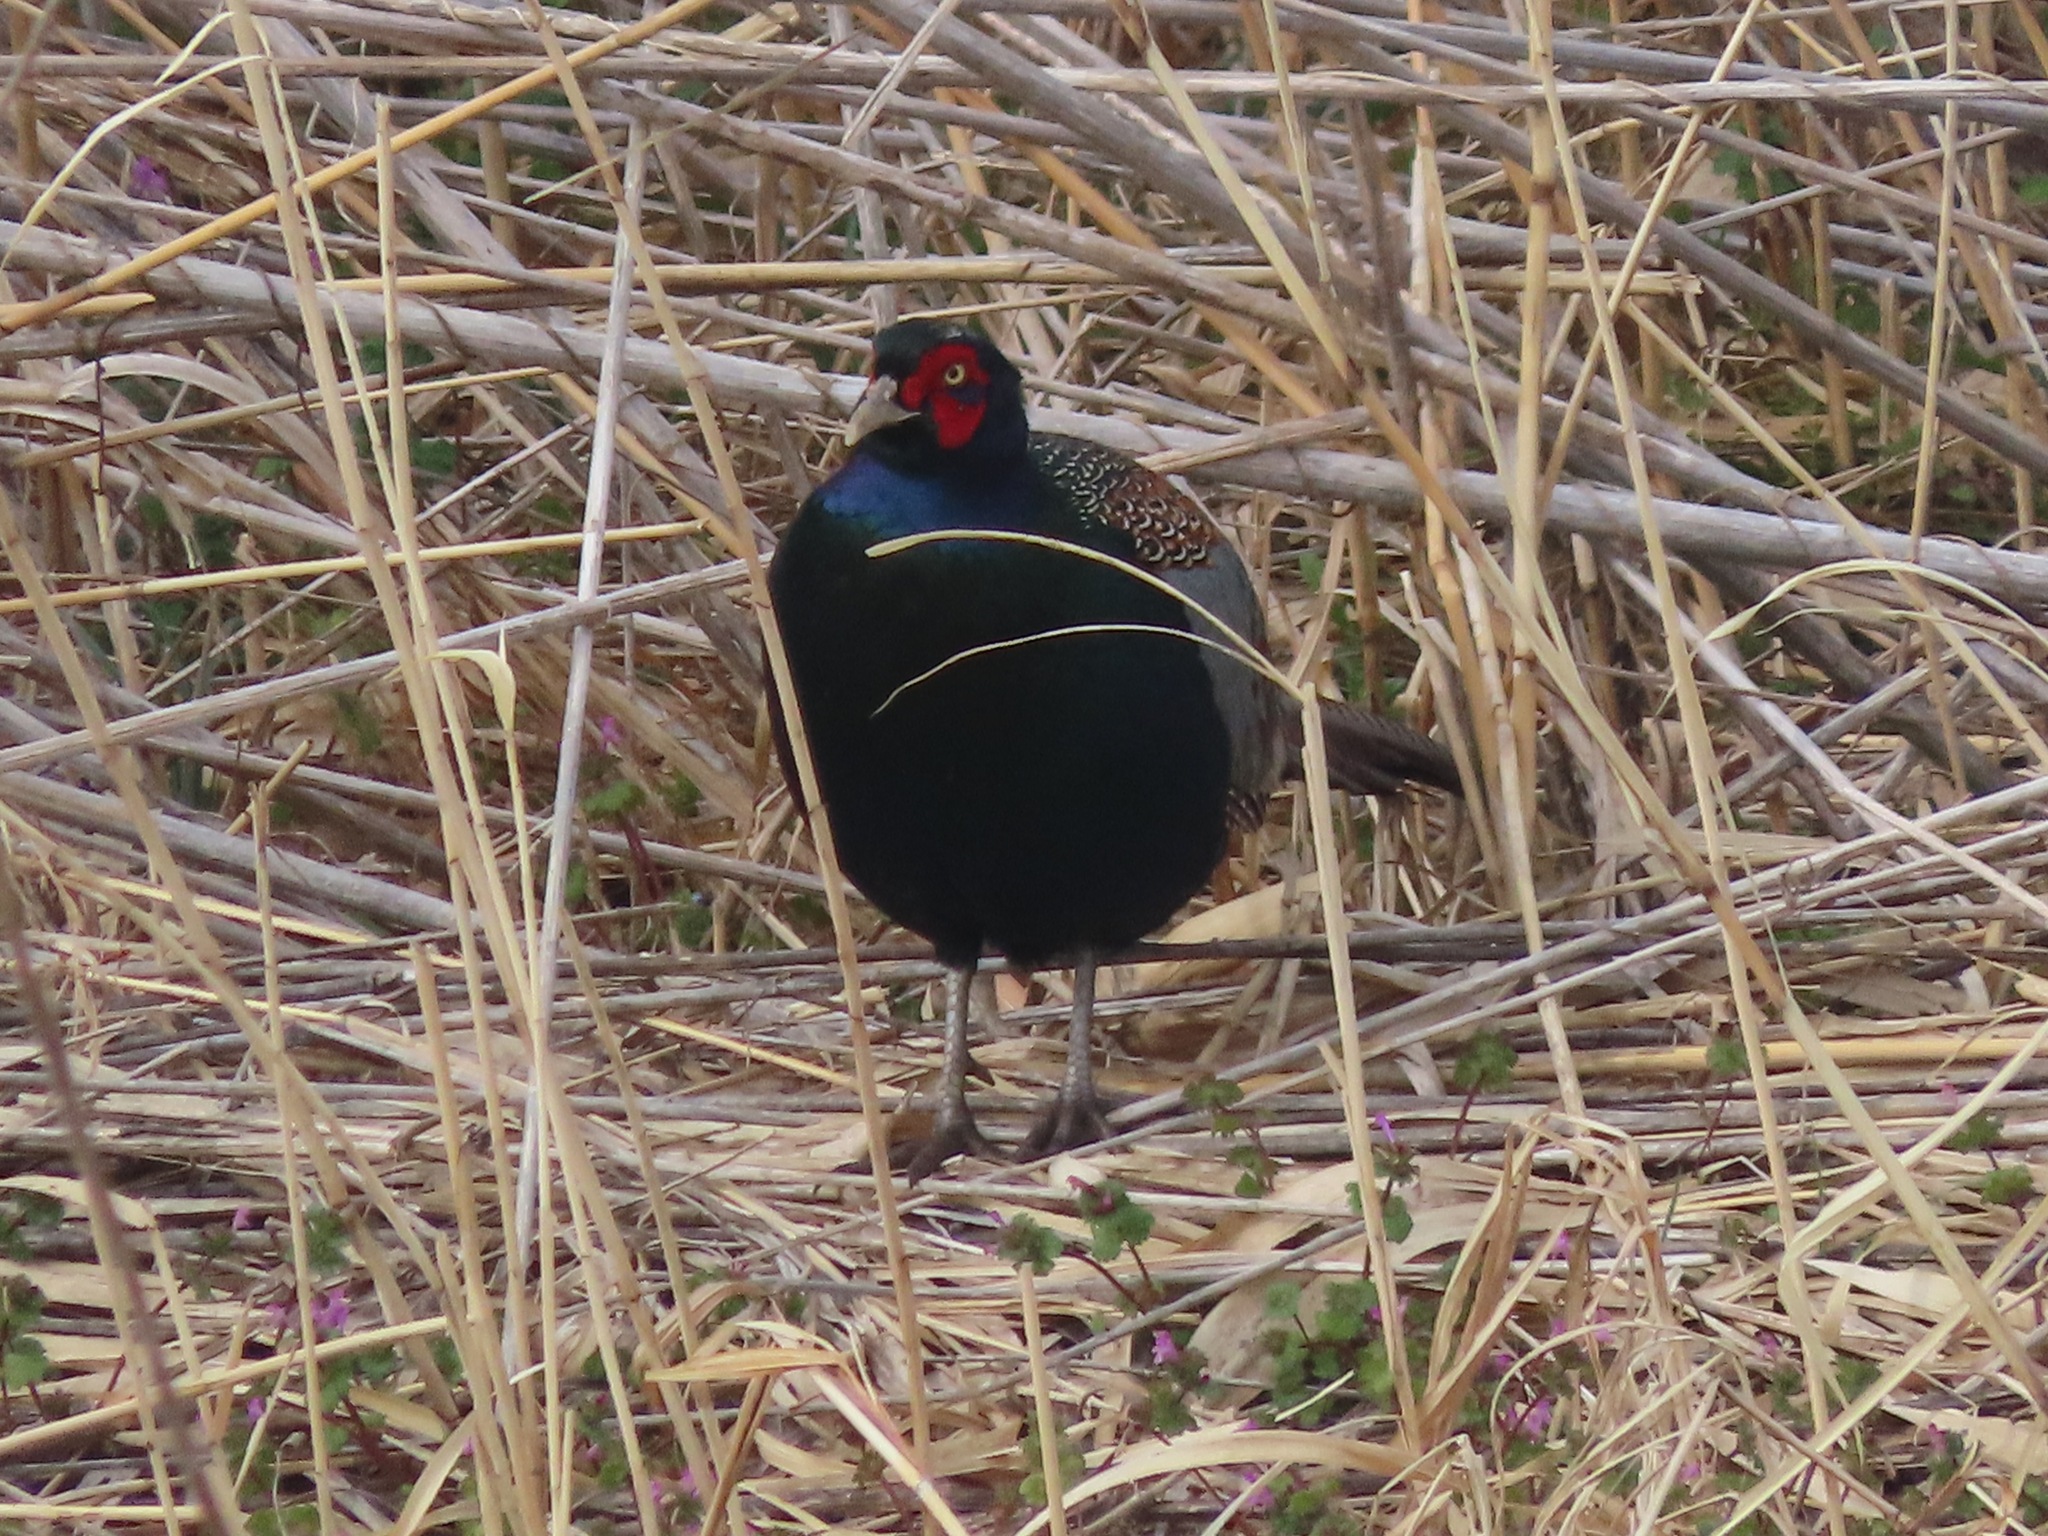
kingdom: Animalia
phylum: Chordata
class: Aves
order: Galliformes
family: Phasianidae
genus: Phasianus
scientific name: Phasianus versicolor
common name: Green pheasant
